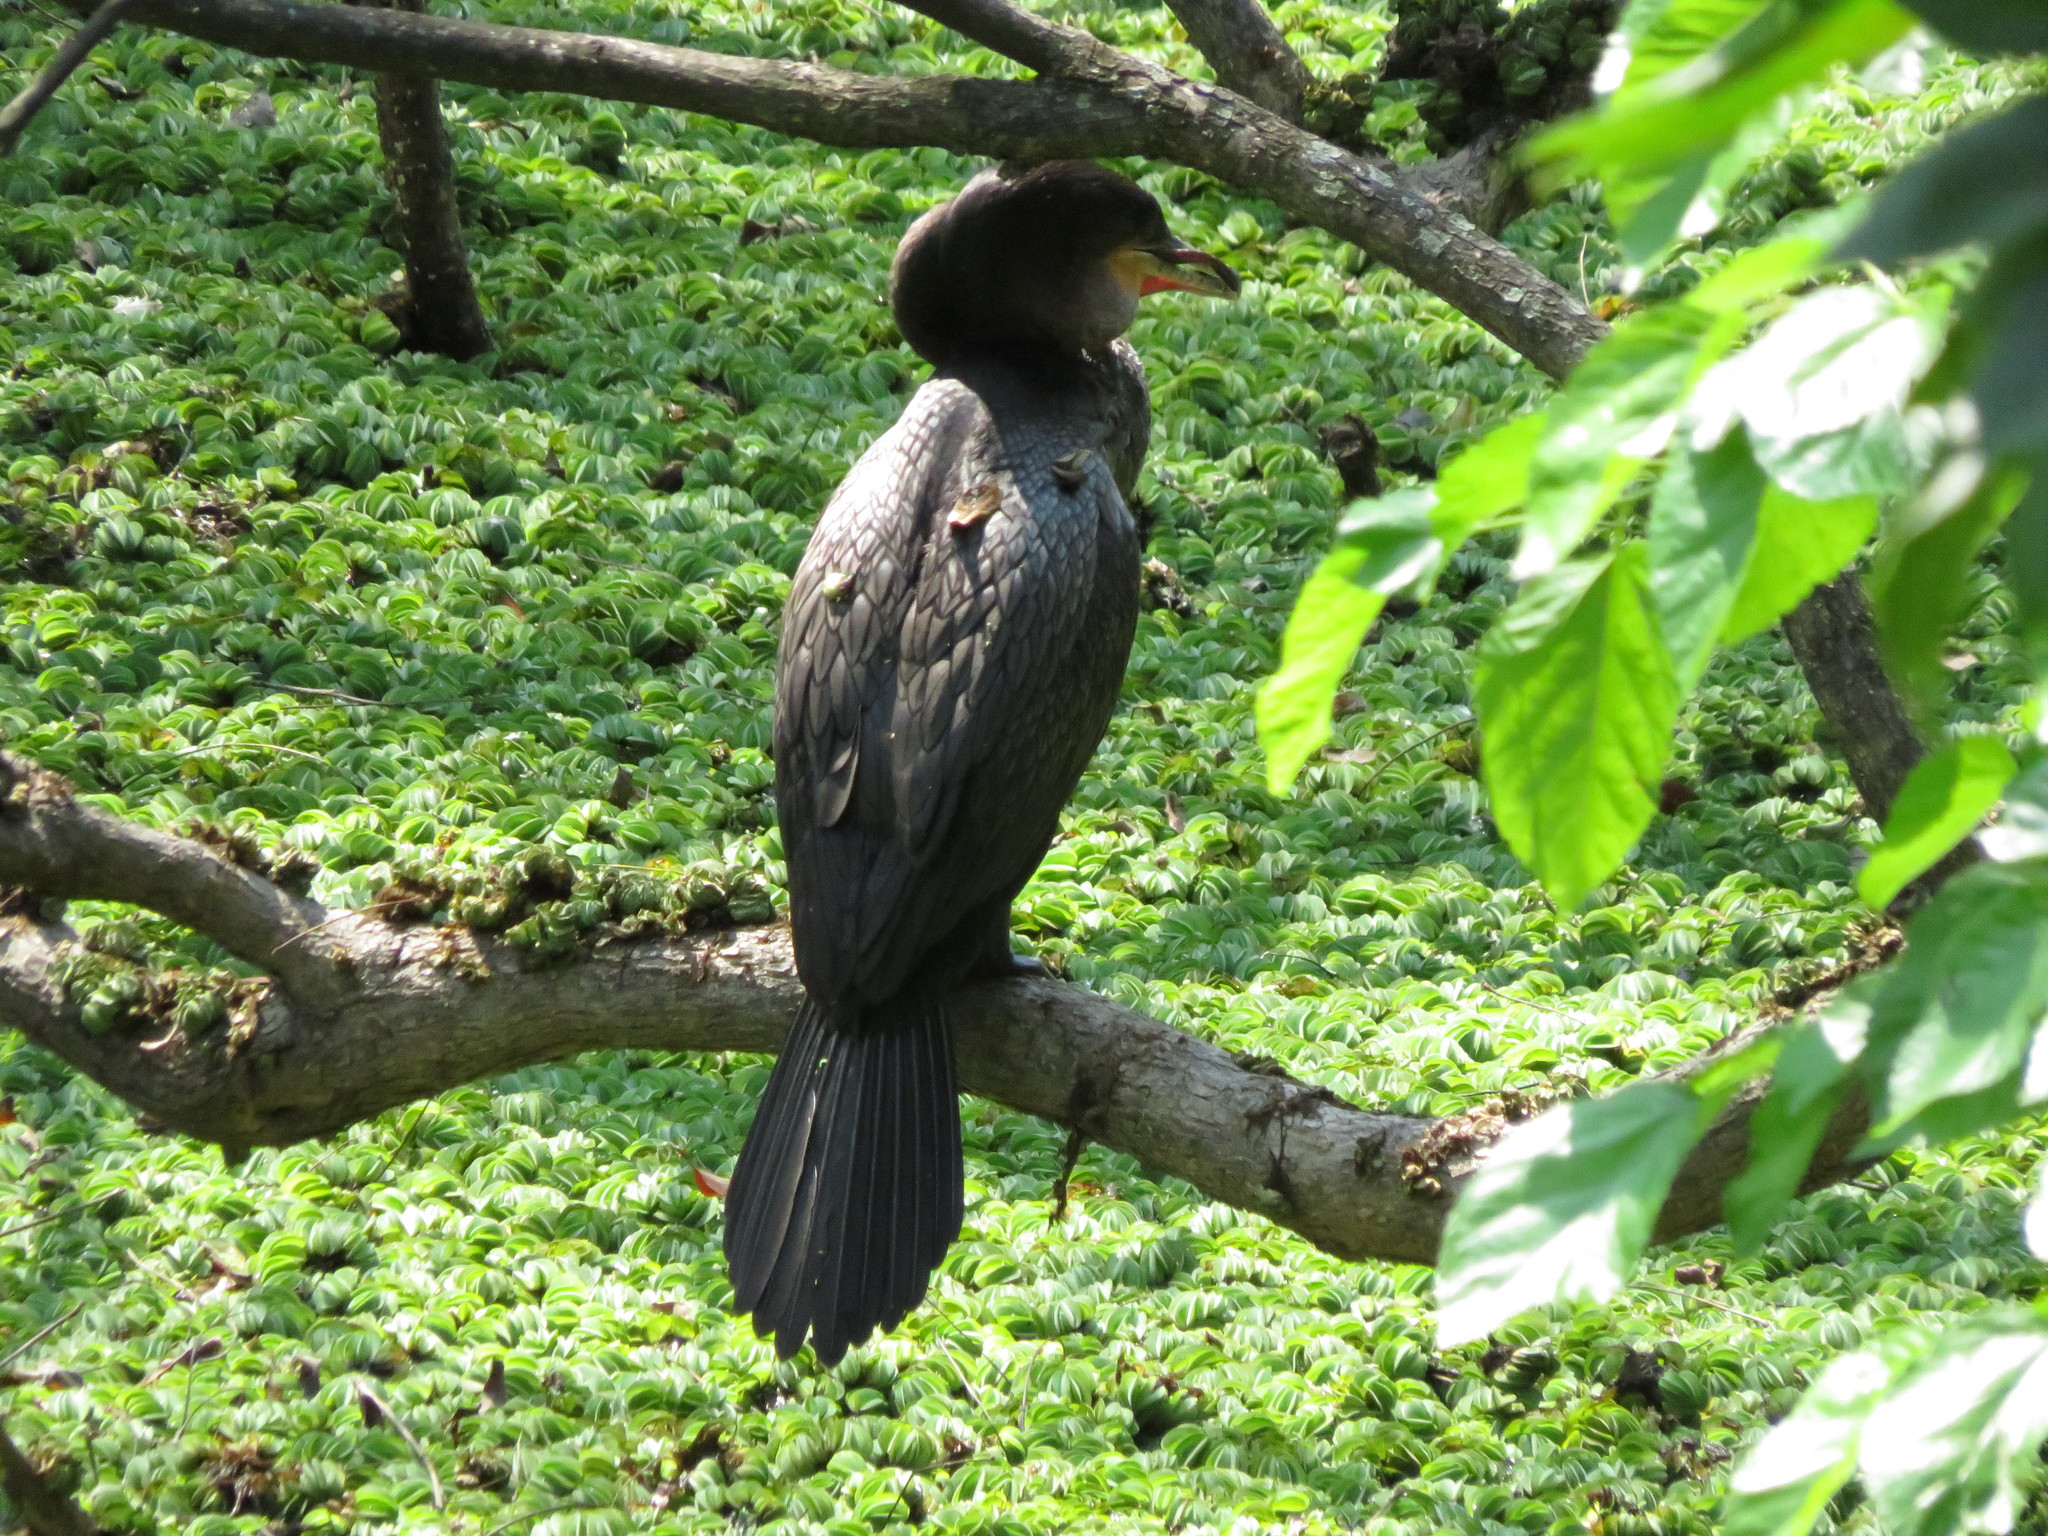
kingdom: Animalia
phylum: Chordata
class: Aves
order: Suliformes
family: Phalacrocoracidae
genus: Phalacrocorax
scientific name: Phalacrocorax brasilianus
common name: Neotropic cormorant
